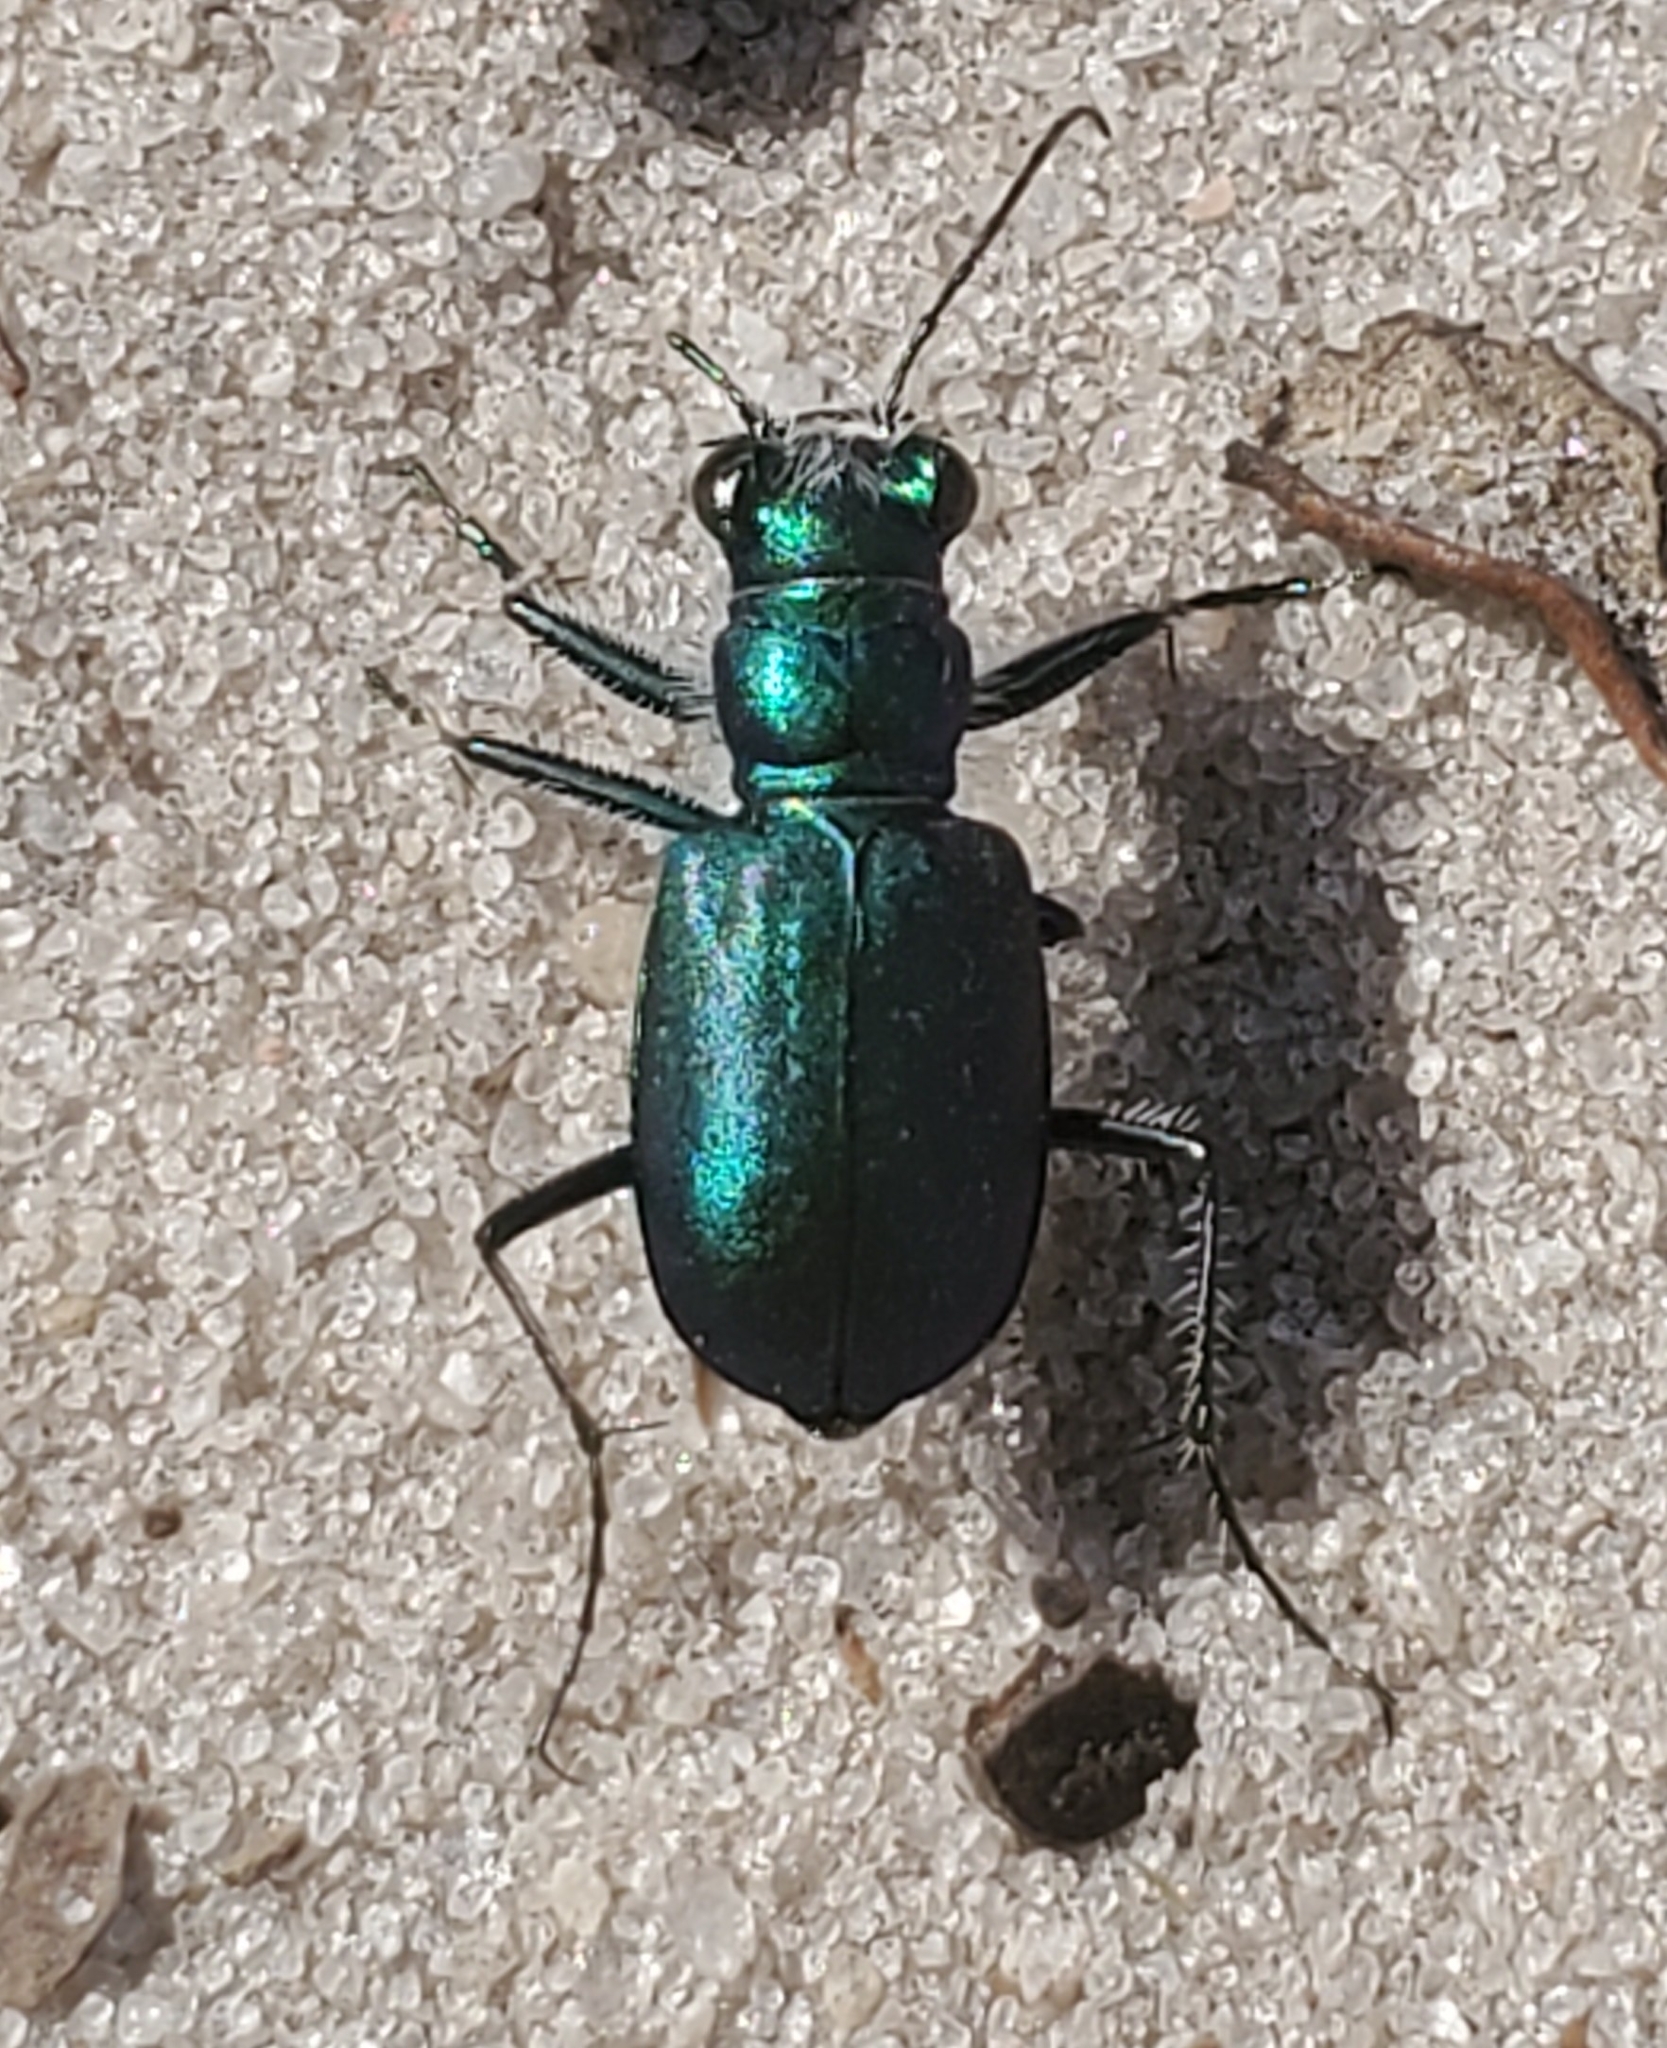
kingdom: Animalia
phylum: Arthropoda
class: Insecta
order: Coleoptera
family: Carabidae
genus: Cicindela
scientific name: Cicindela scutellaris
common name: Festive tiger beetle
